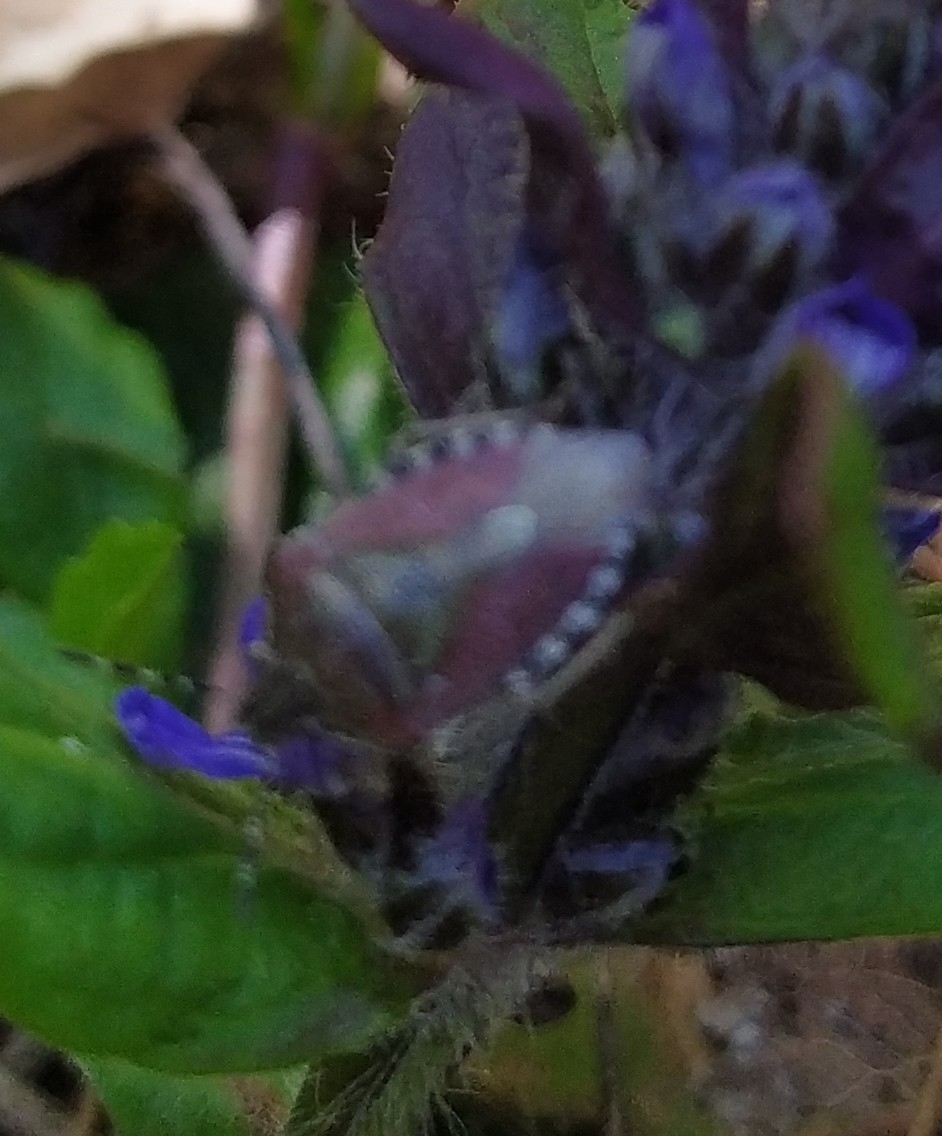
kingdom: Animalia
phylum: Arthropoda
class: Insecta
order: Hemiptera
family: Pentatomidae
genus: Dolycoris
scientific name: Dolycoris baccarum
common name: Sloe bug
